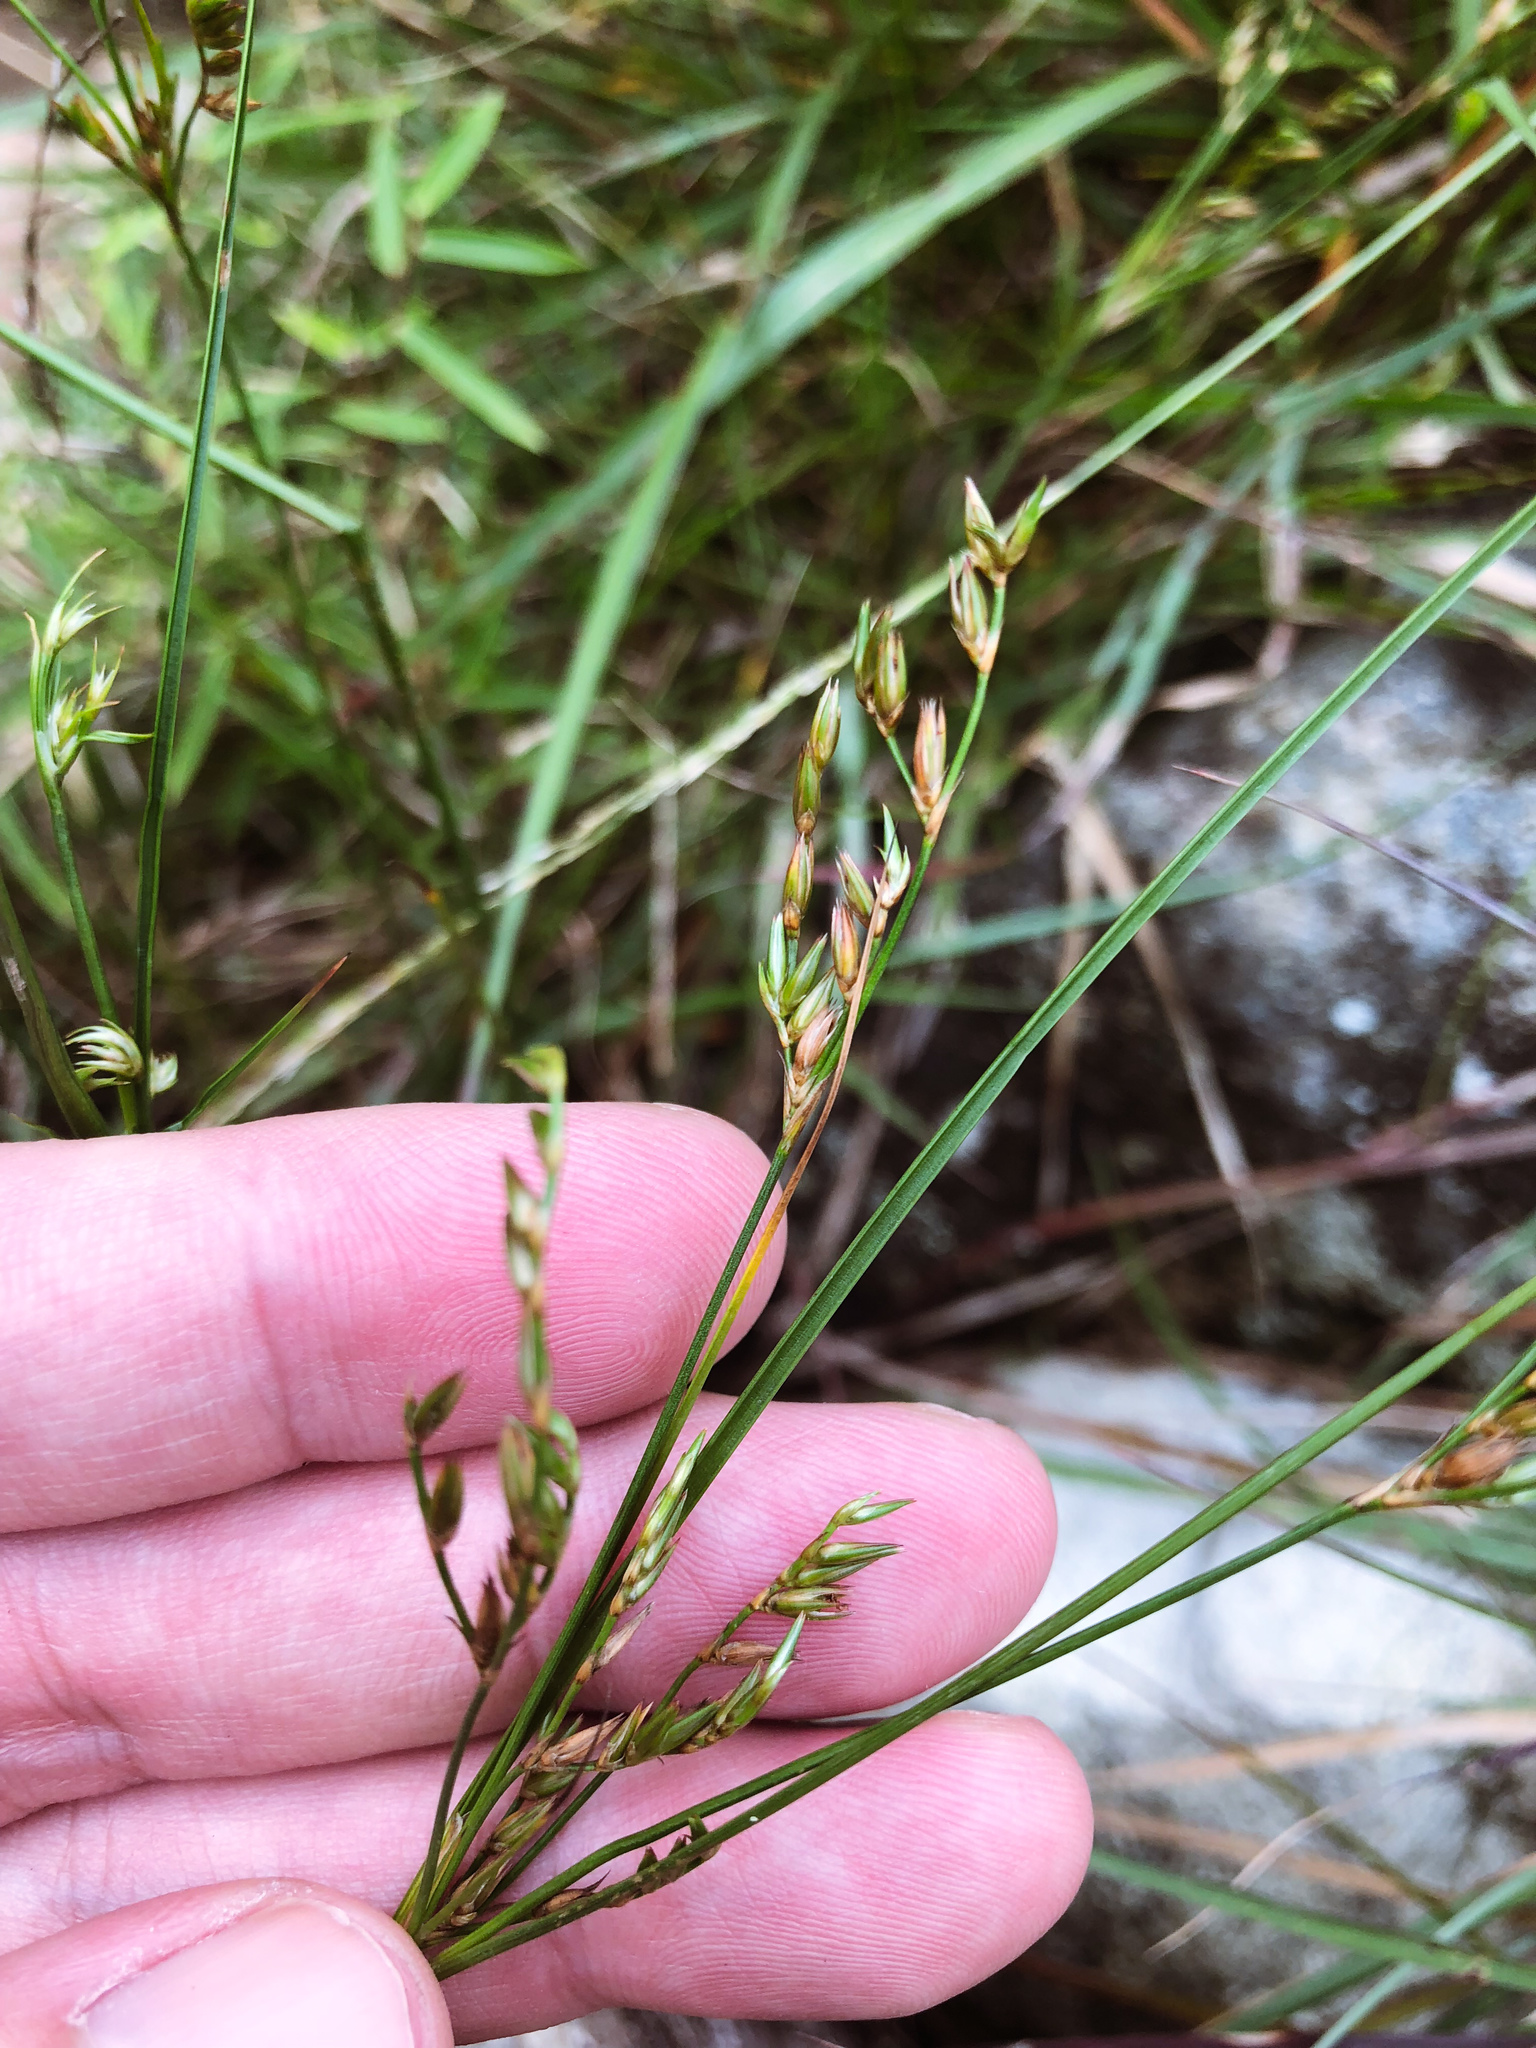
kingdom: Plantae
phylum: Tracheophyta
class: Liliopsida
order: Poales
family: Juncaceae
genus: Juncus
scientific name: Juncus tenuis
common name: Slender rush
